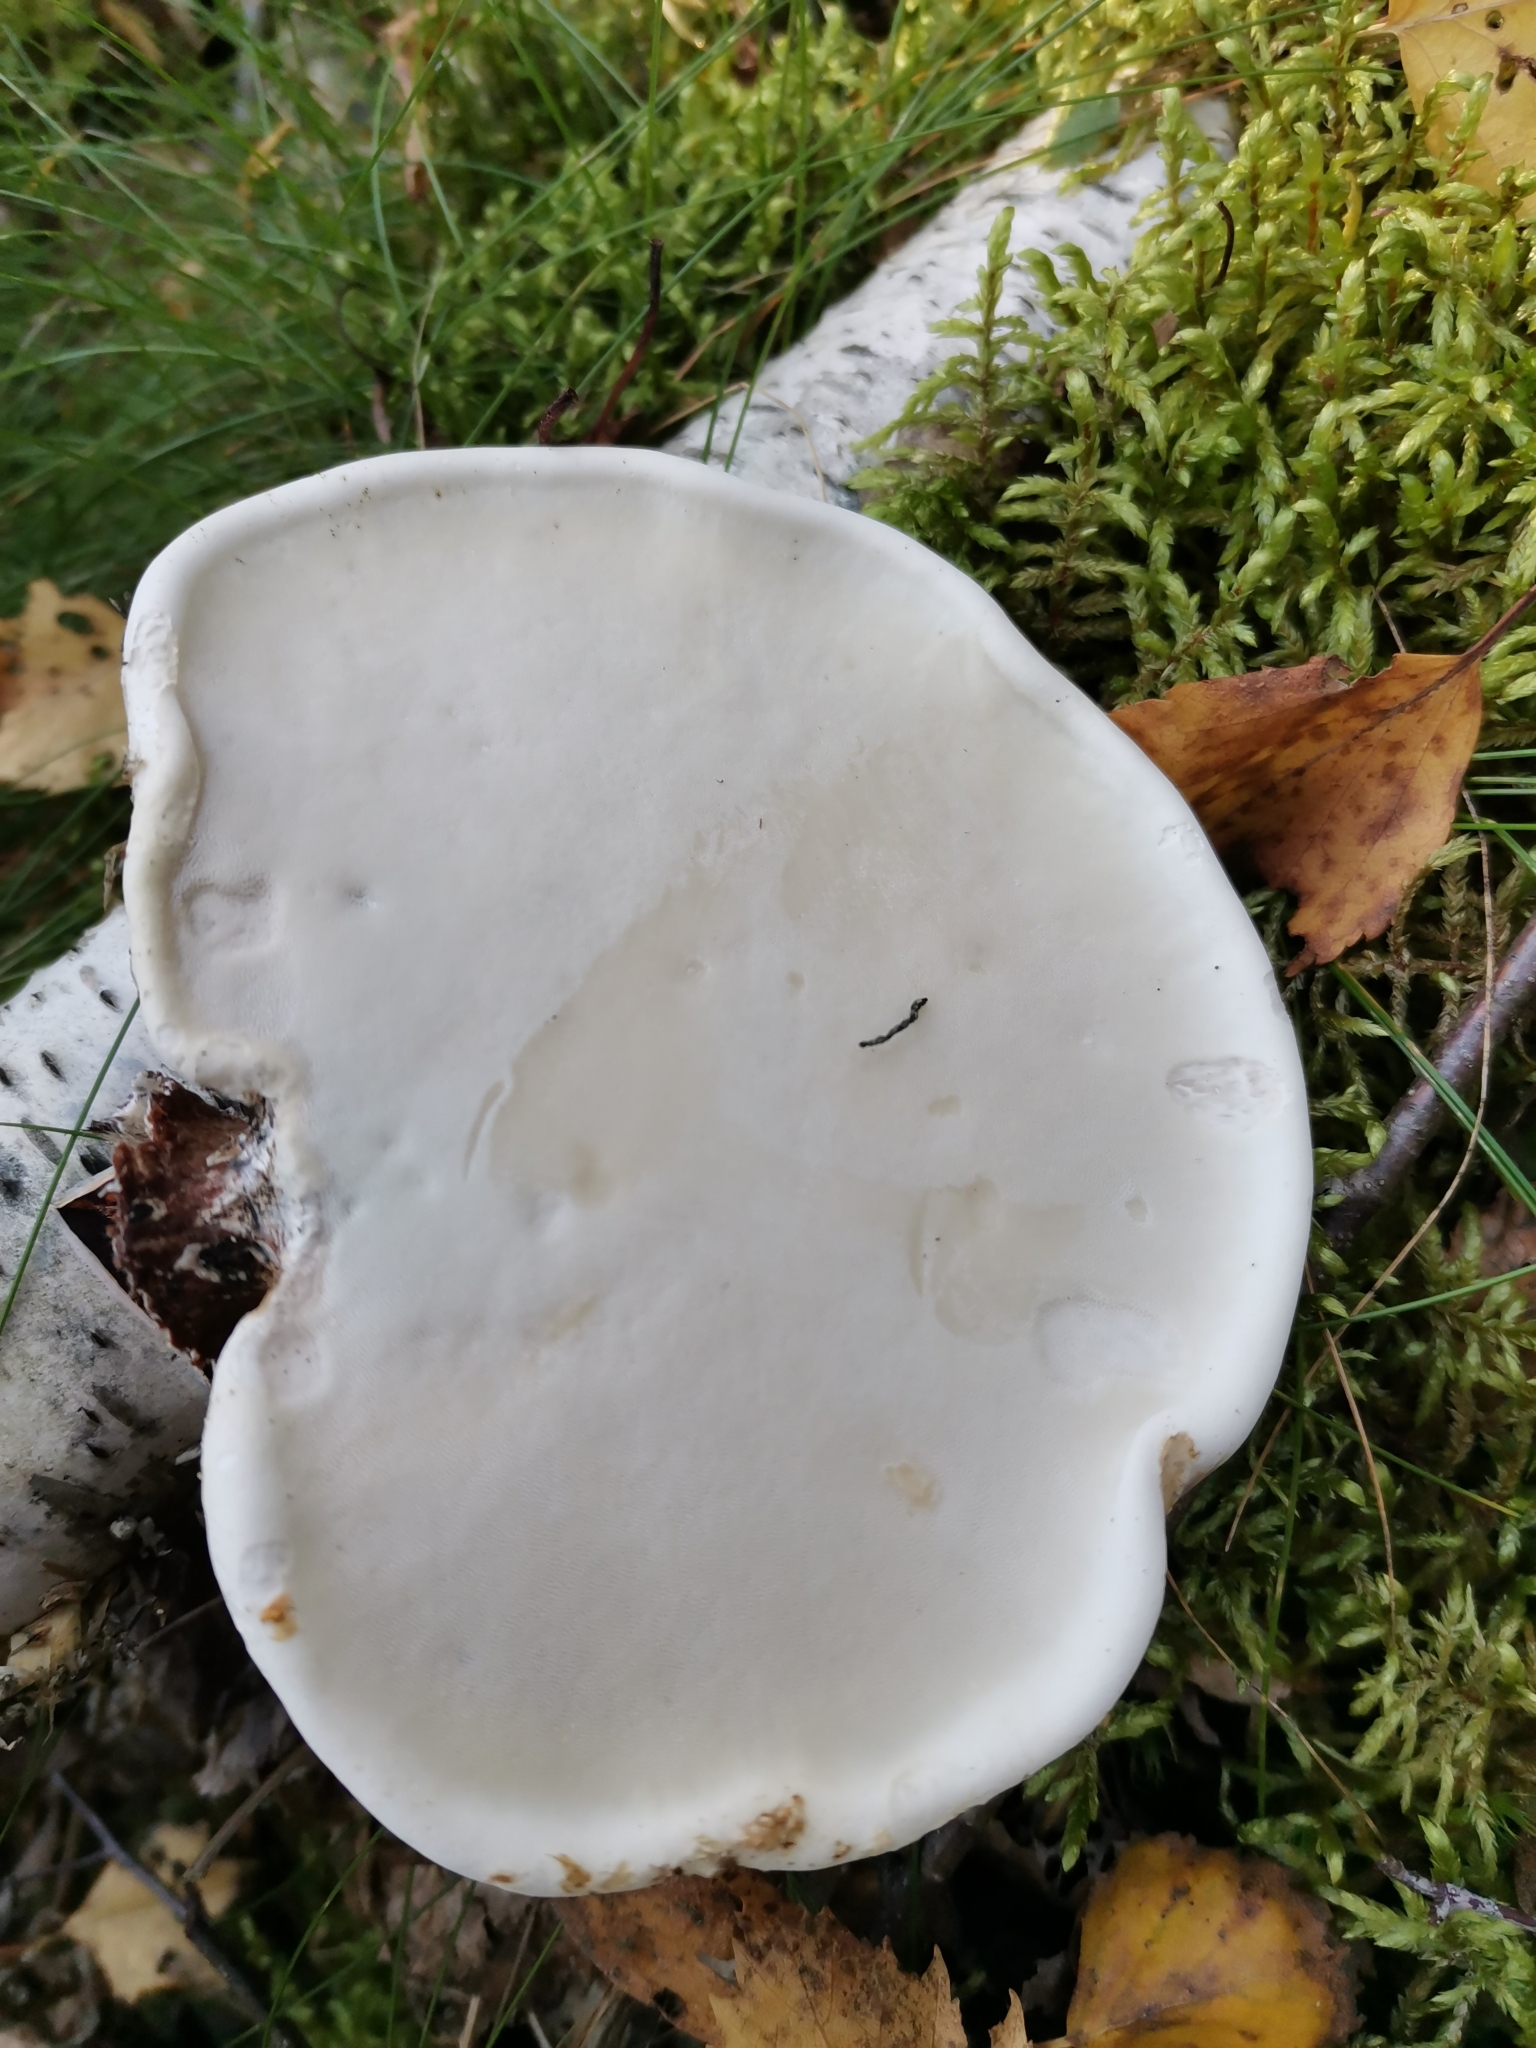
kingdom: Fungi
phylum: Basidiomycota
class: Agaricomycetes
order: Polyporales
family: Fomitopsidaceae
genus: Fomitopsis
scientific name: Fomitopsis betulina
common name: Birch polypore
